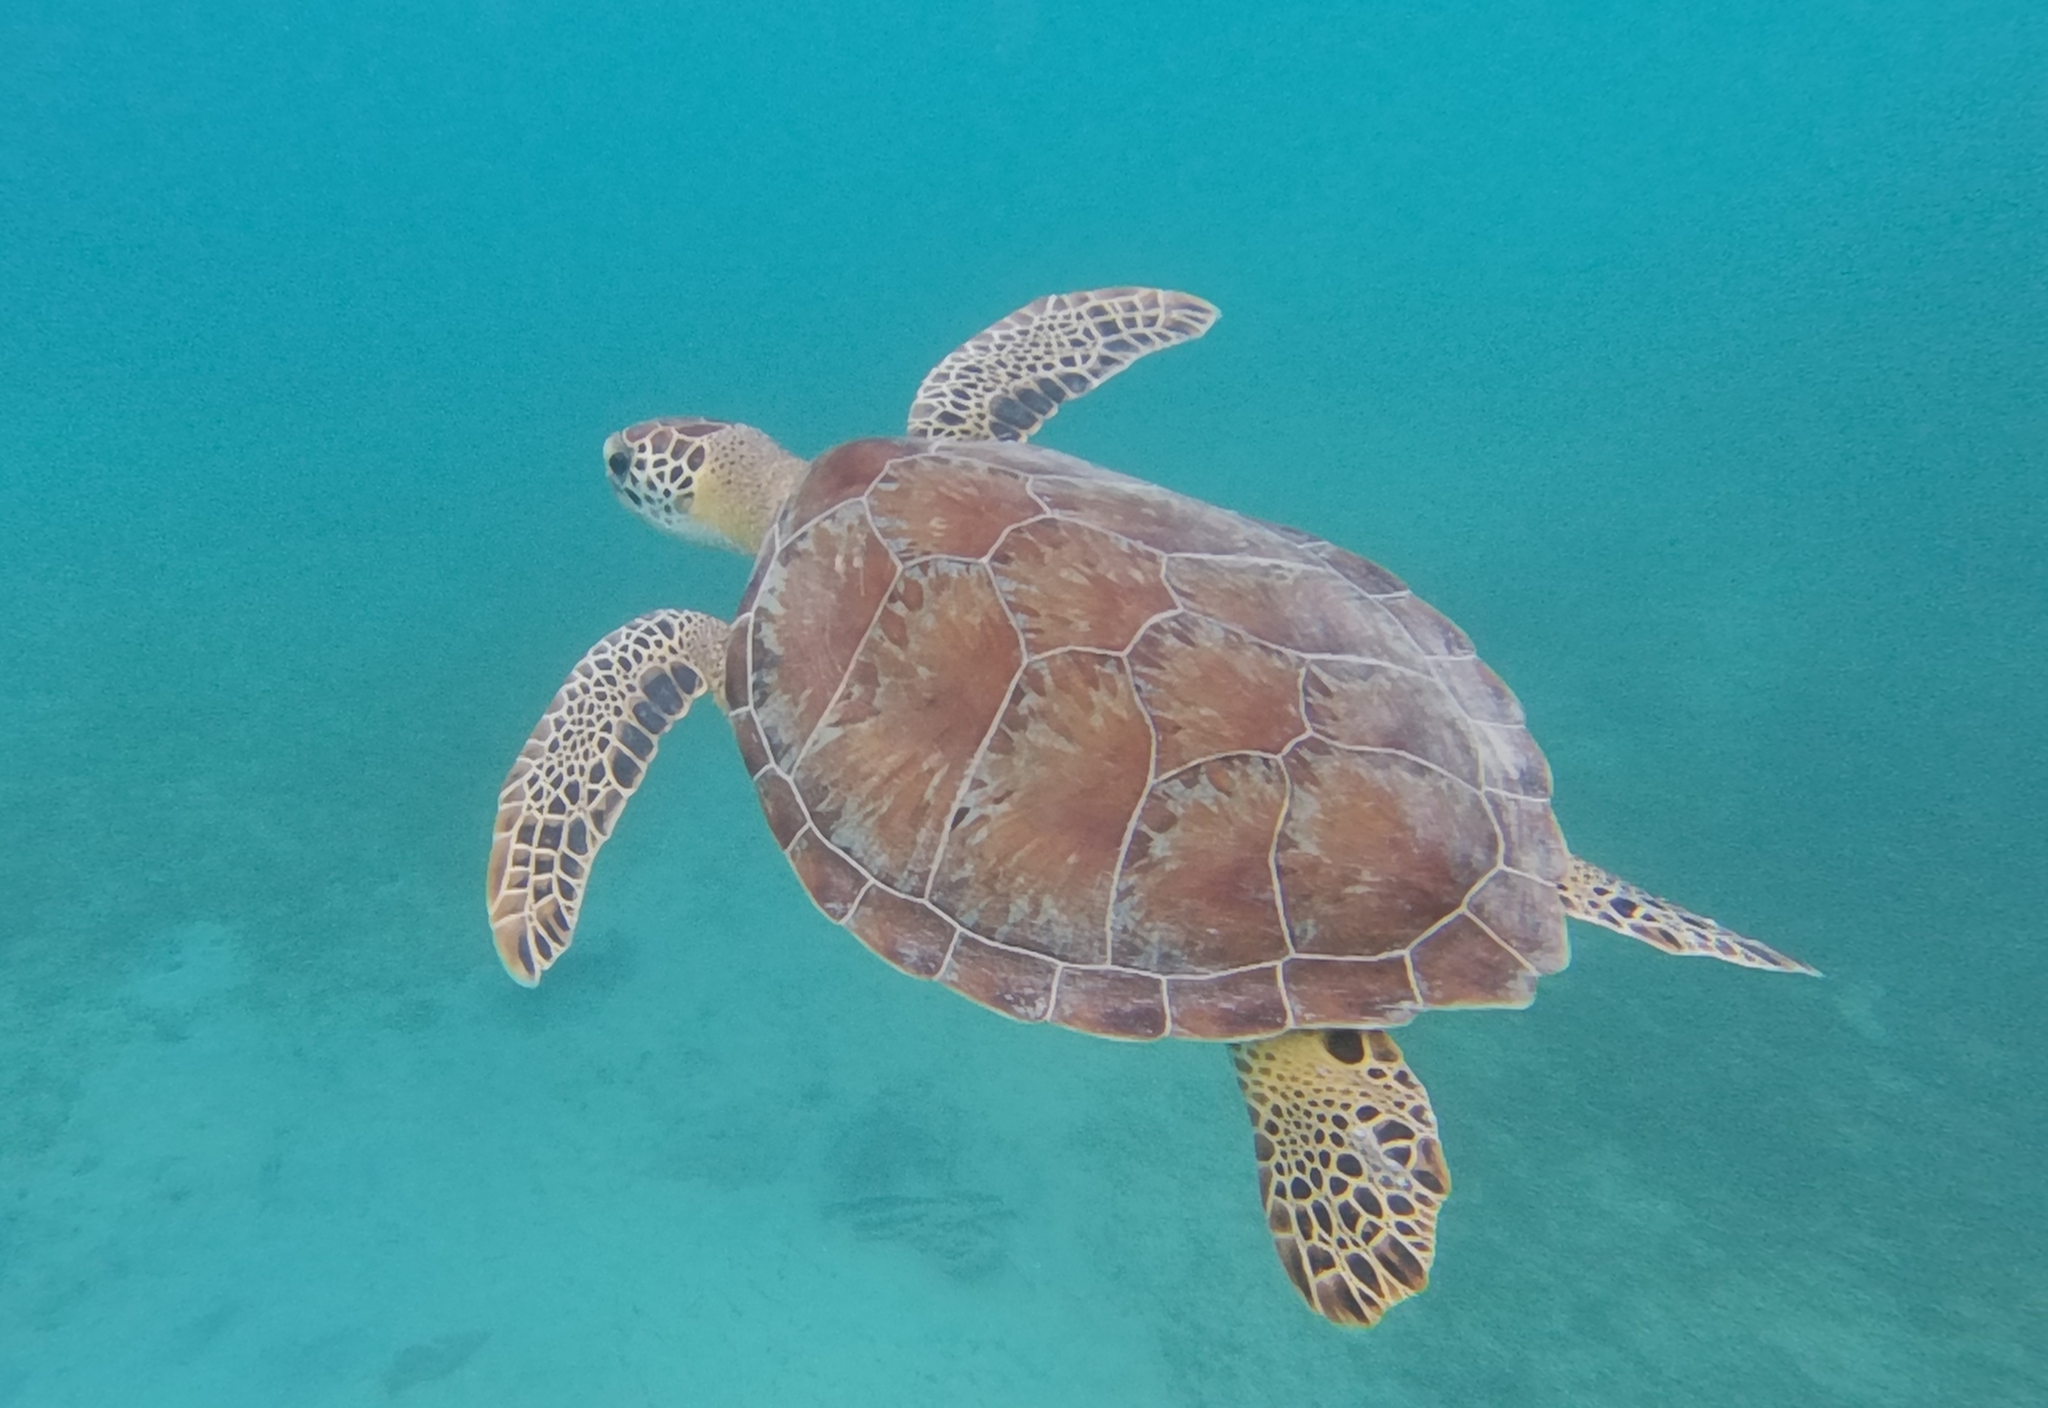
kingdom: Animalia
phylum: Chordata
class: Testudines
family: Cheloniidae
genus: Chelonia
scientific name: Chelonia mydas
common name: Green turtle
